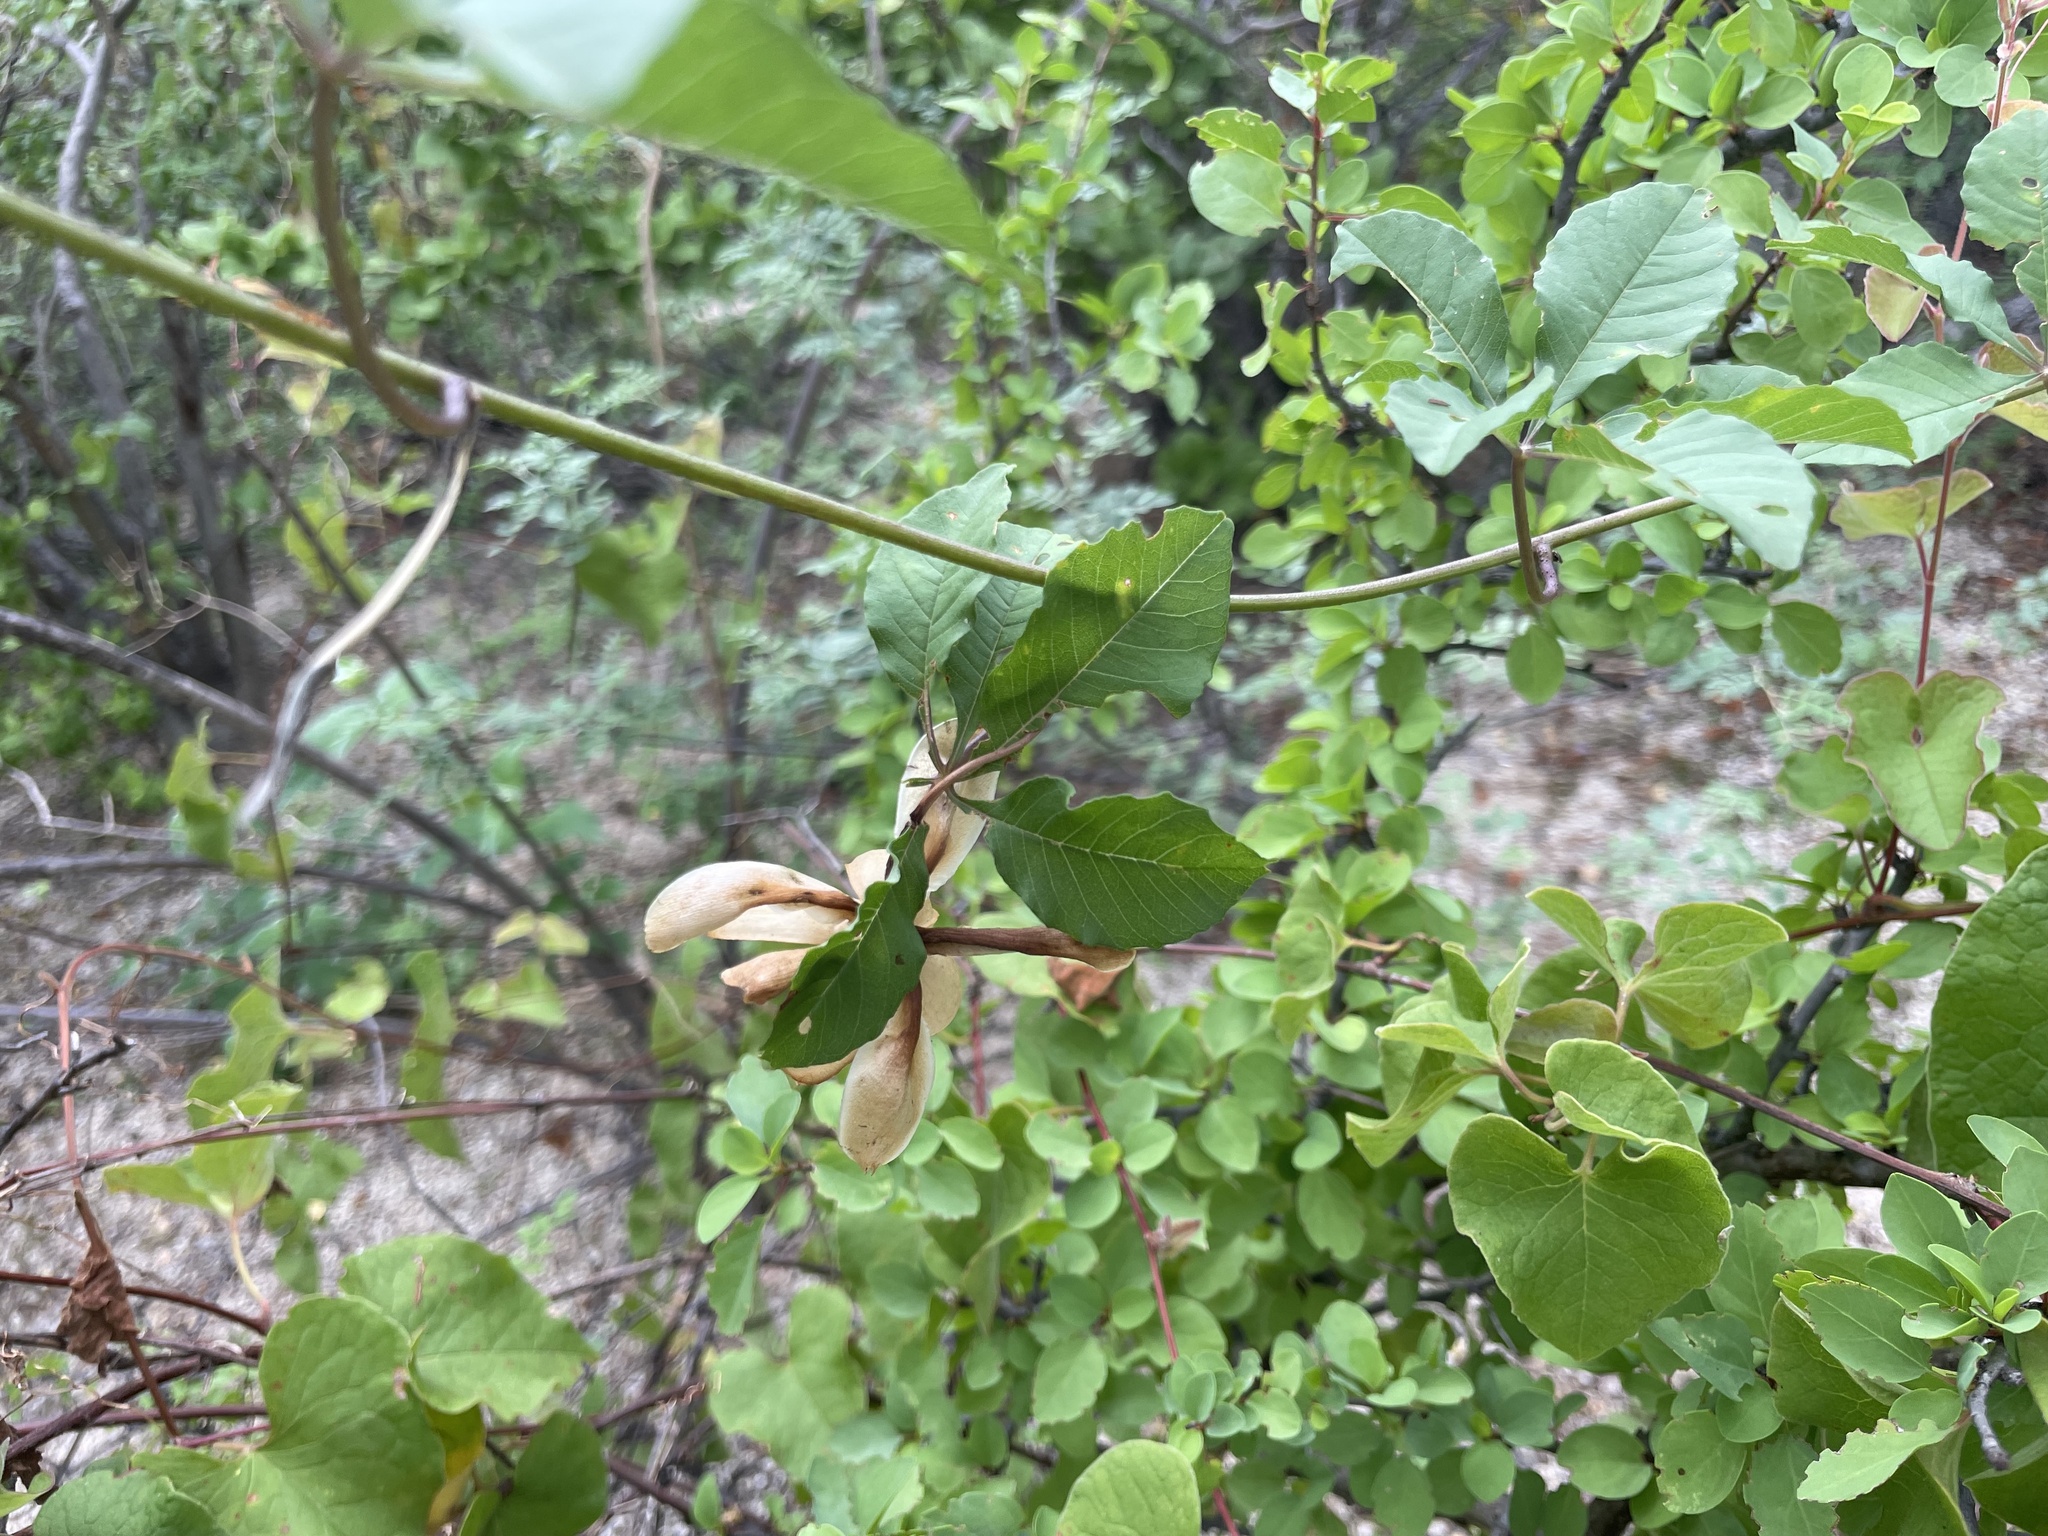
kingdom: Plantae
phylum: Tracheophyta
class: Magnoliopsida
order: Solanales
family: Convolvulaceae
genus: Distimake
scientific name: Distimake aureus
